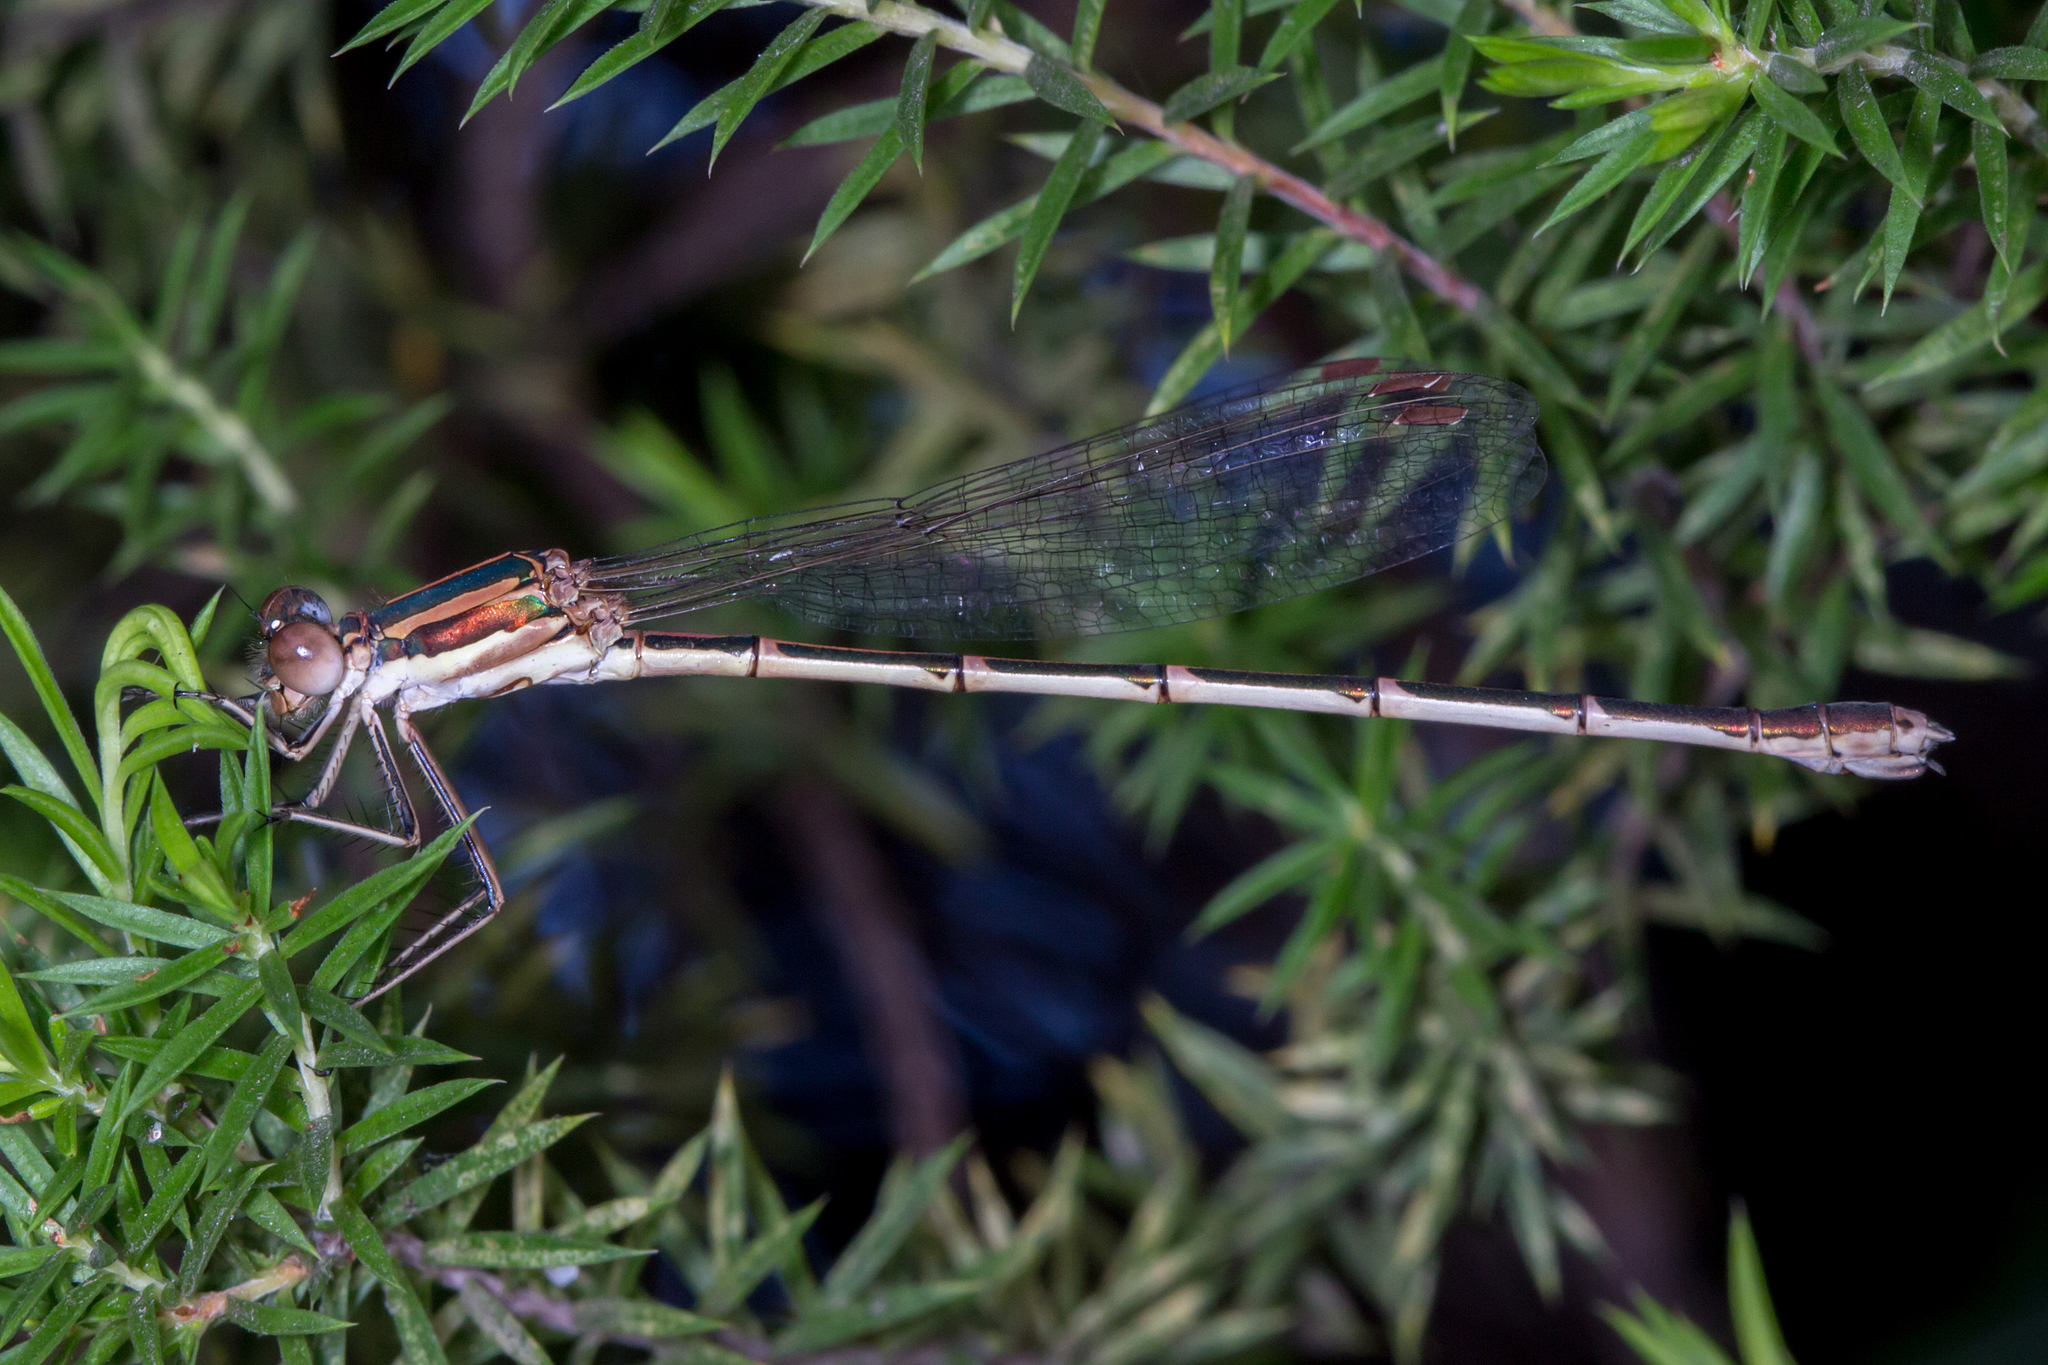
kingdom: Animalia
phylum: Arthropoda
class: Insecta
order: Odonata
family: Lestidae
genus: Austrolestes
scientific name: Austrolestes analis
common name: Slender ringtail
